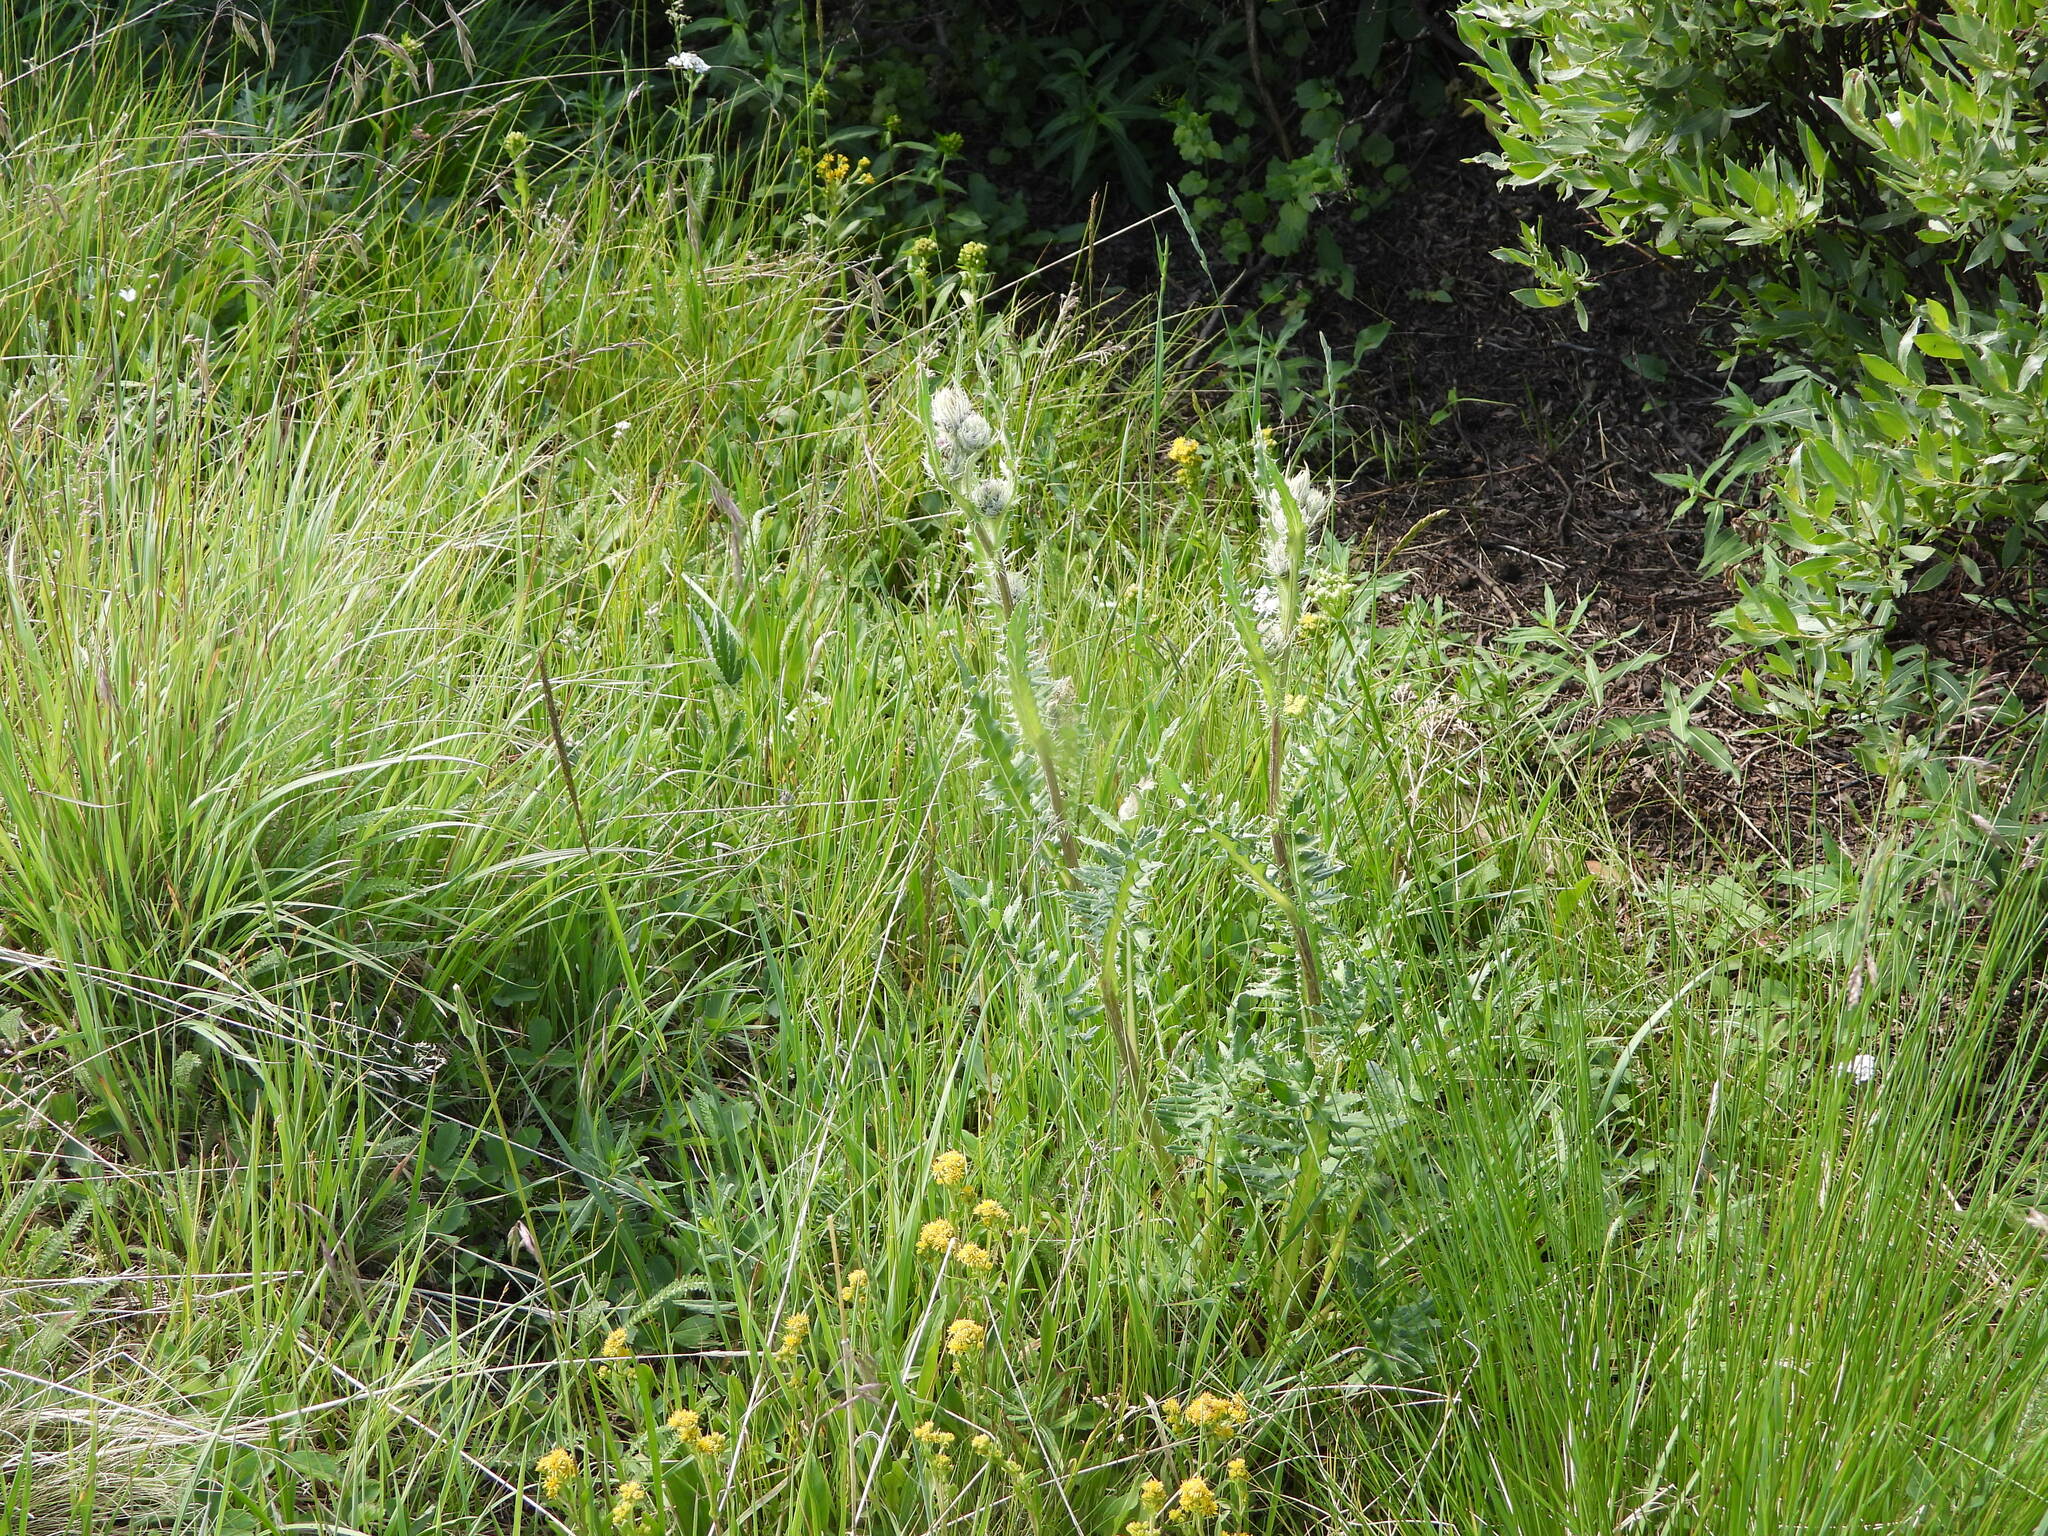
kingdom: Plantae
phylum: Tracheophyta
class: Magnoliopsida
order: Asterales
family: Asteraceae
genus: Cirsium
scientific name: Cirsium griseum
